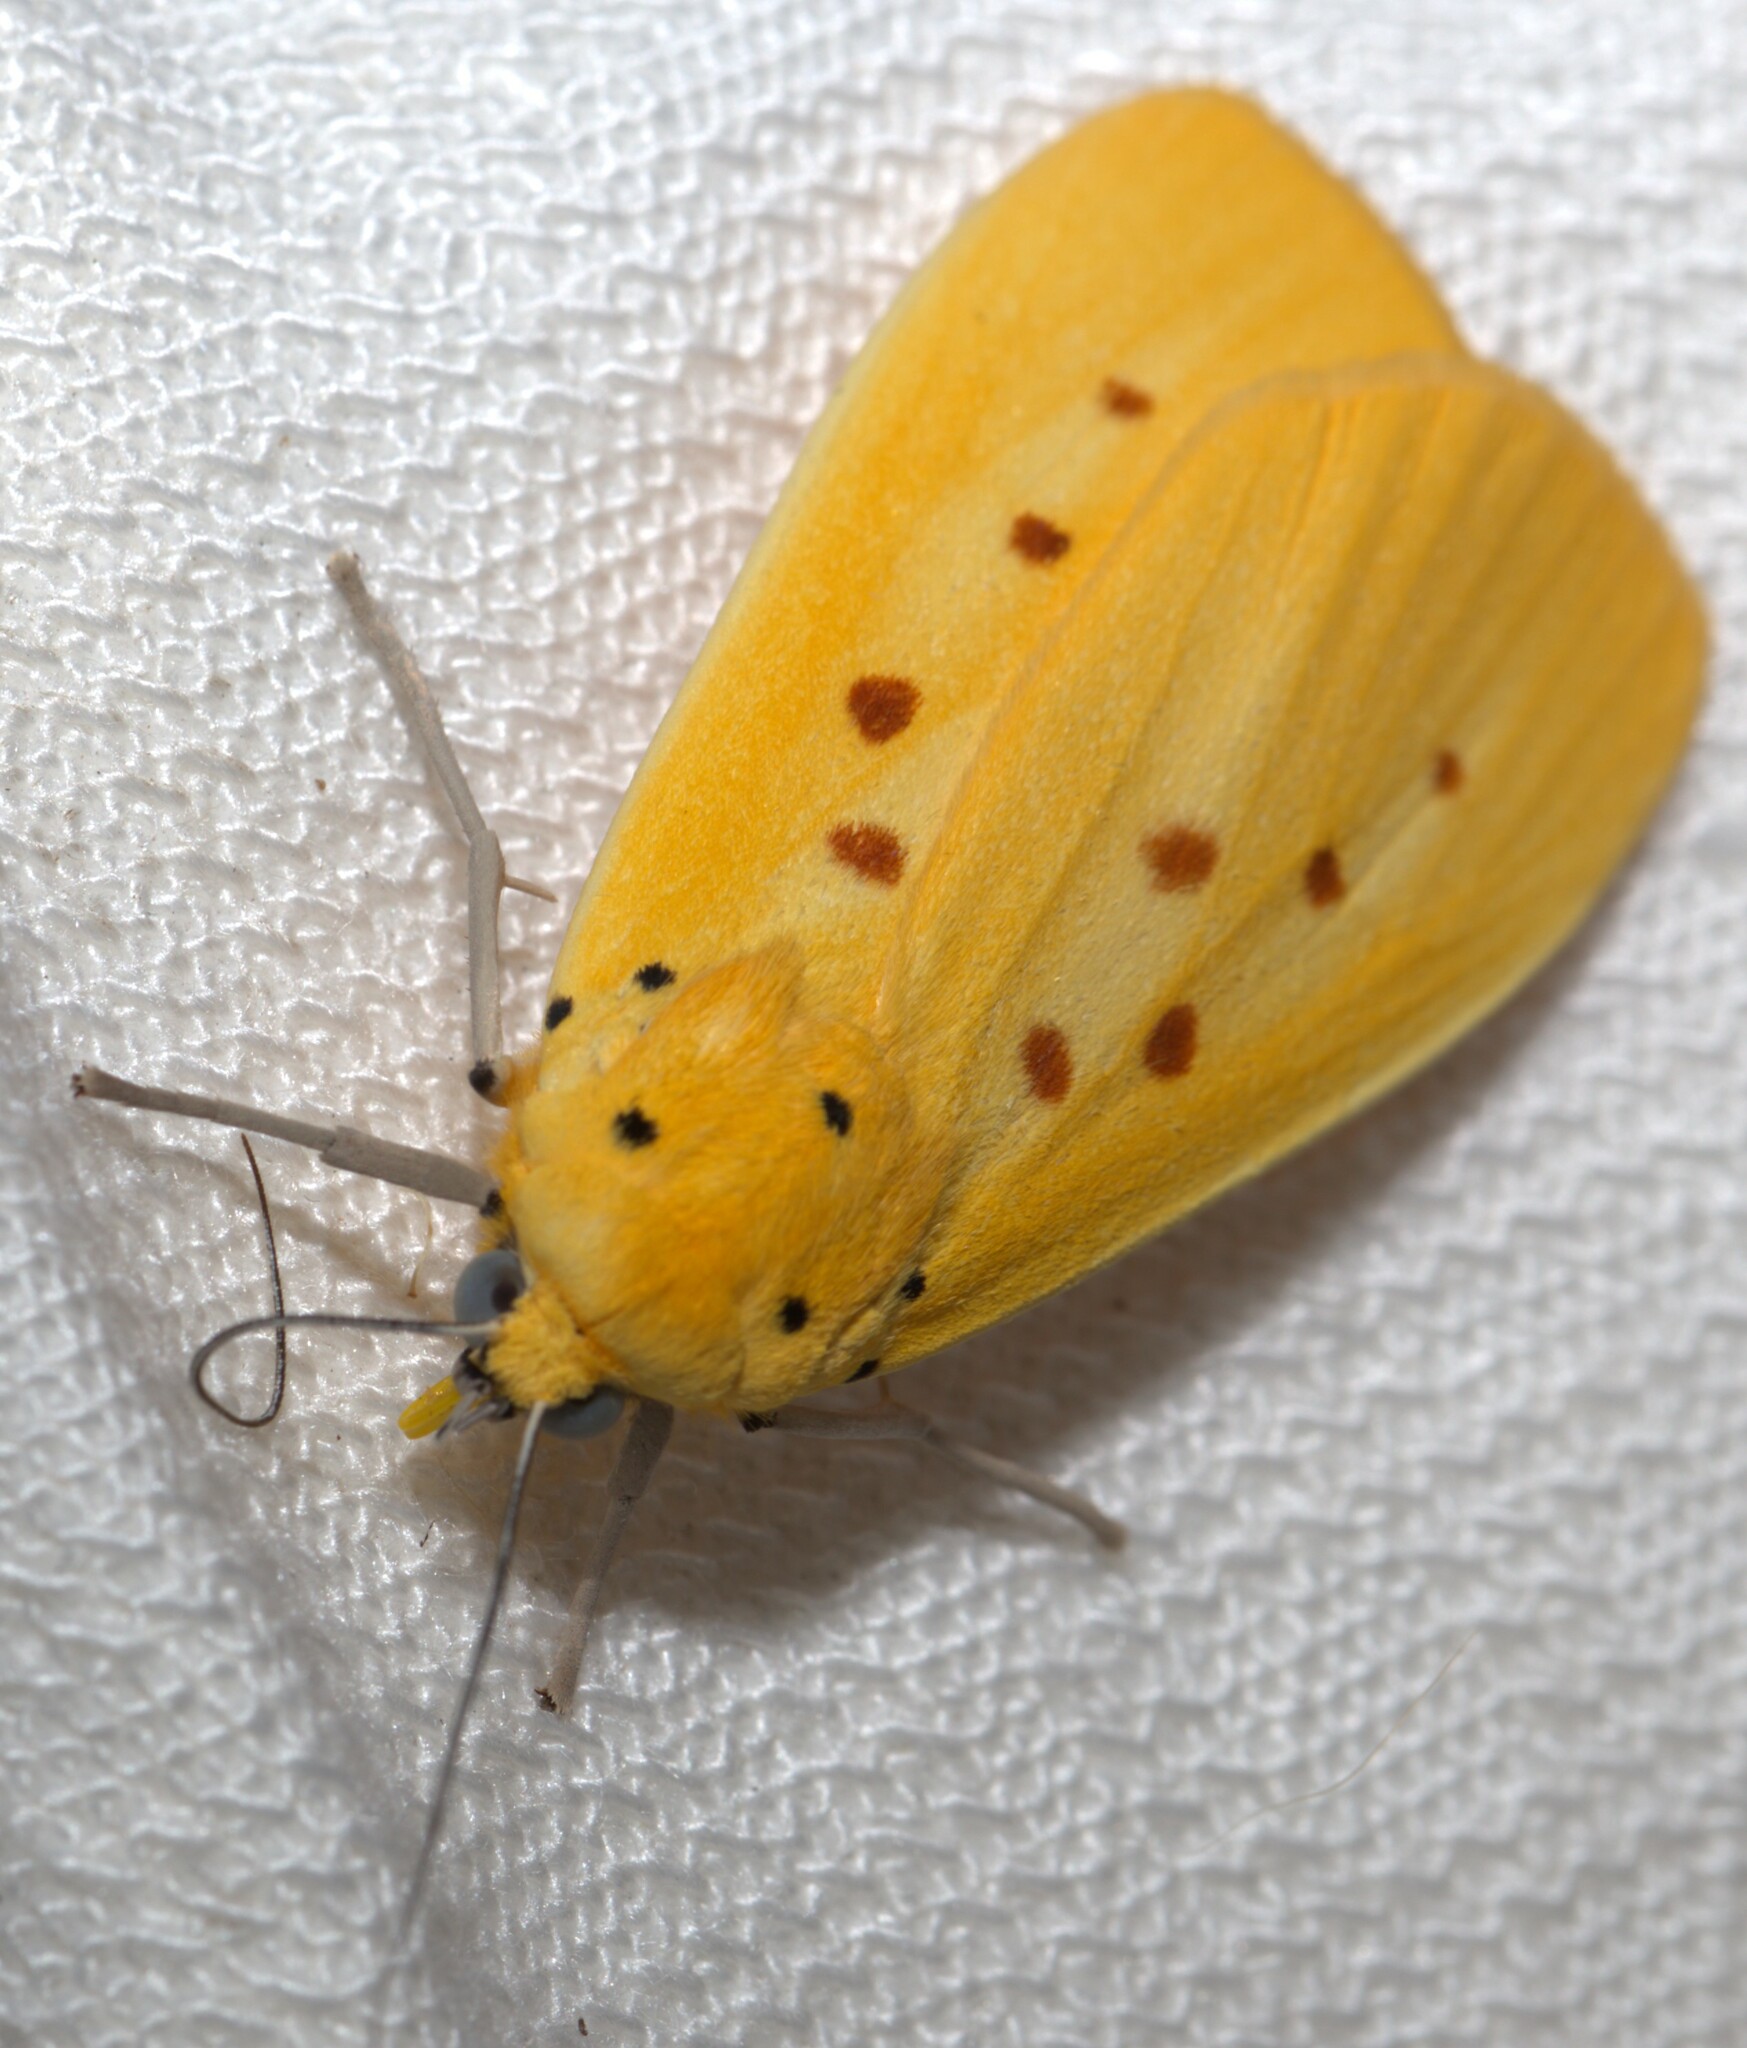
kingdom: Animalia
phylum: Arthropoda
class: Insecta
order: Lepidoptera
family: Noctuidae
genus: Agape
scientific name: Agape chloropyga
